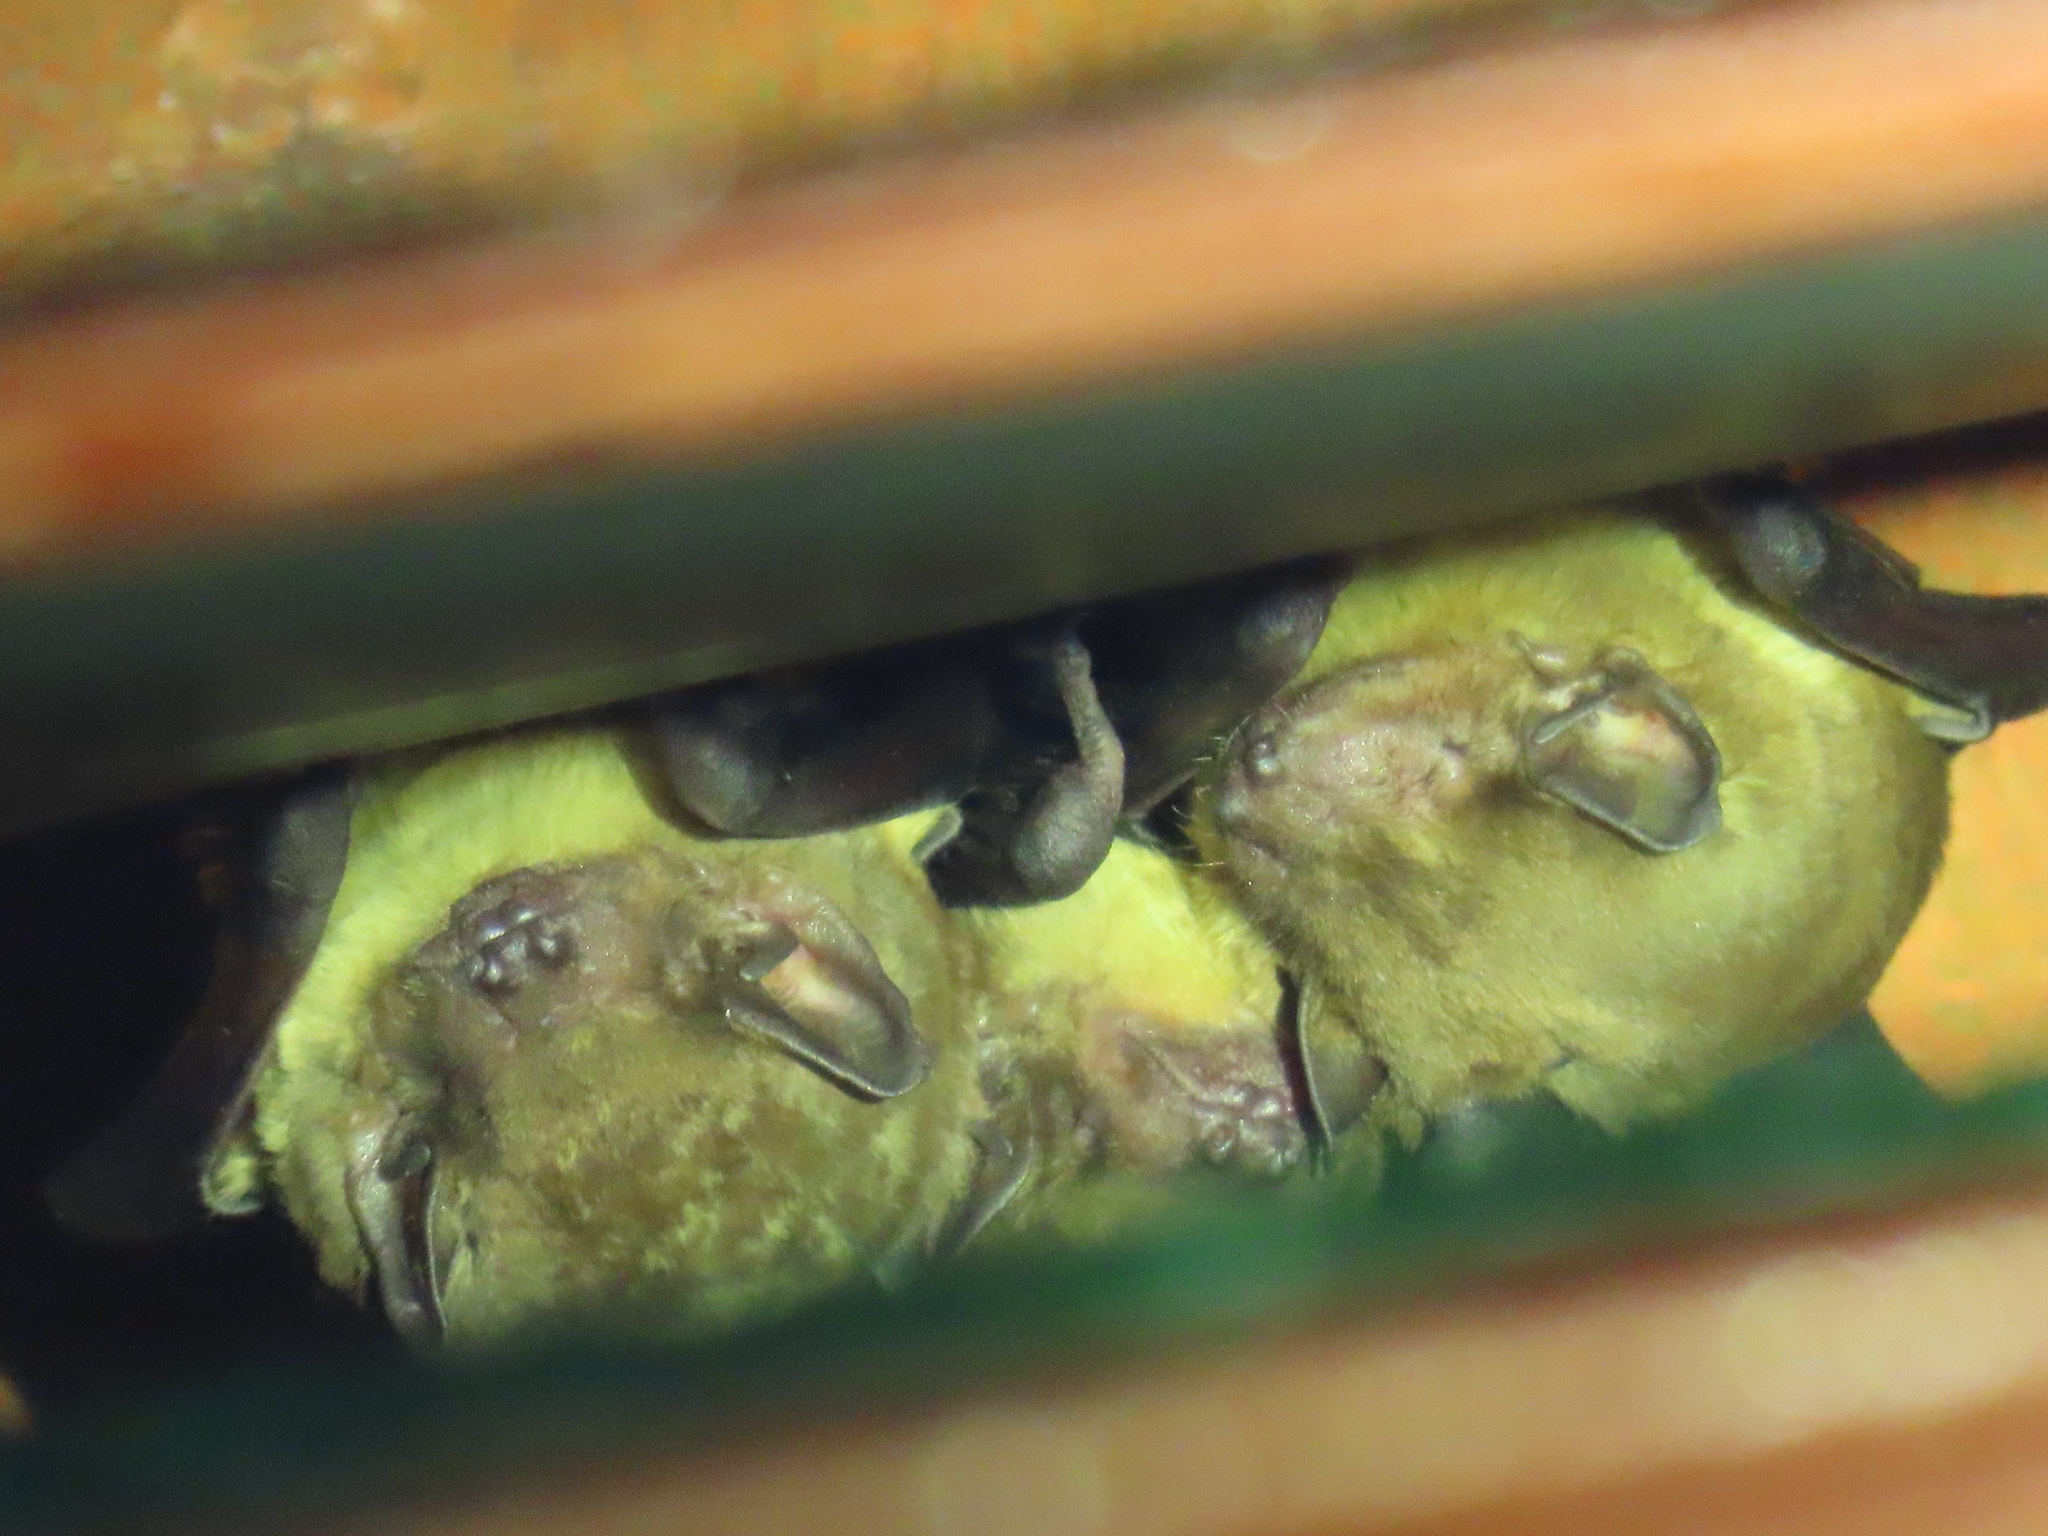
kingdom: Animalia
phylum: Chordata
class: Mammalia
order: Chiroptera
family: Vespertilionidae
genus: Scotophilus
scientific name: Scotophilus dinganii
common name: Yellow-bellied house bat
